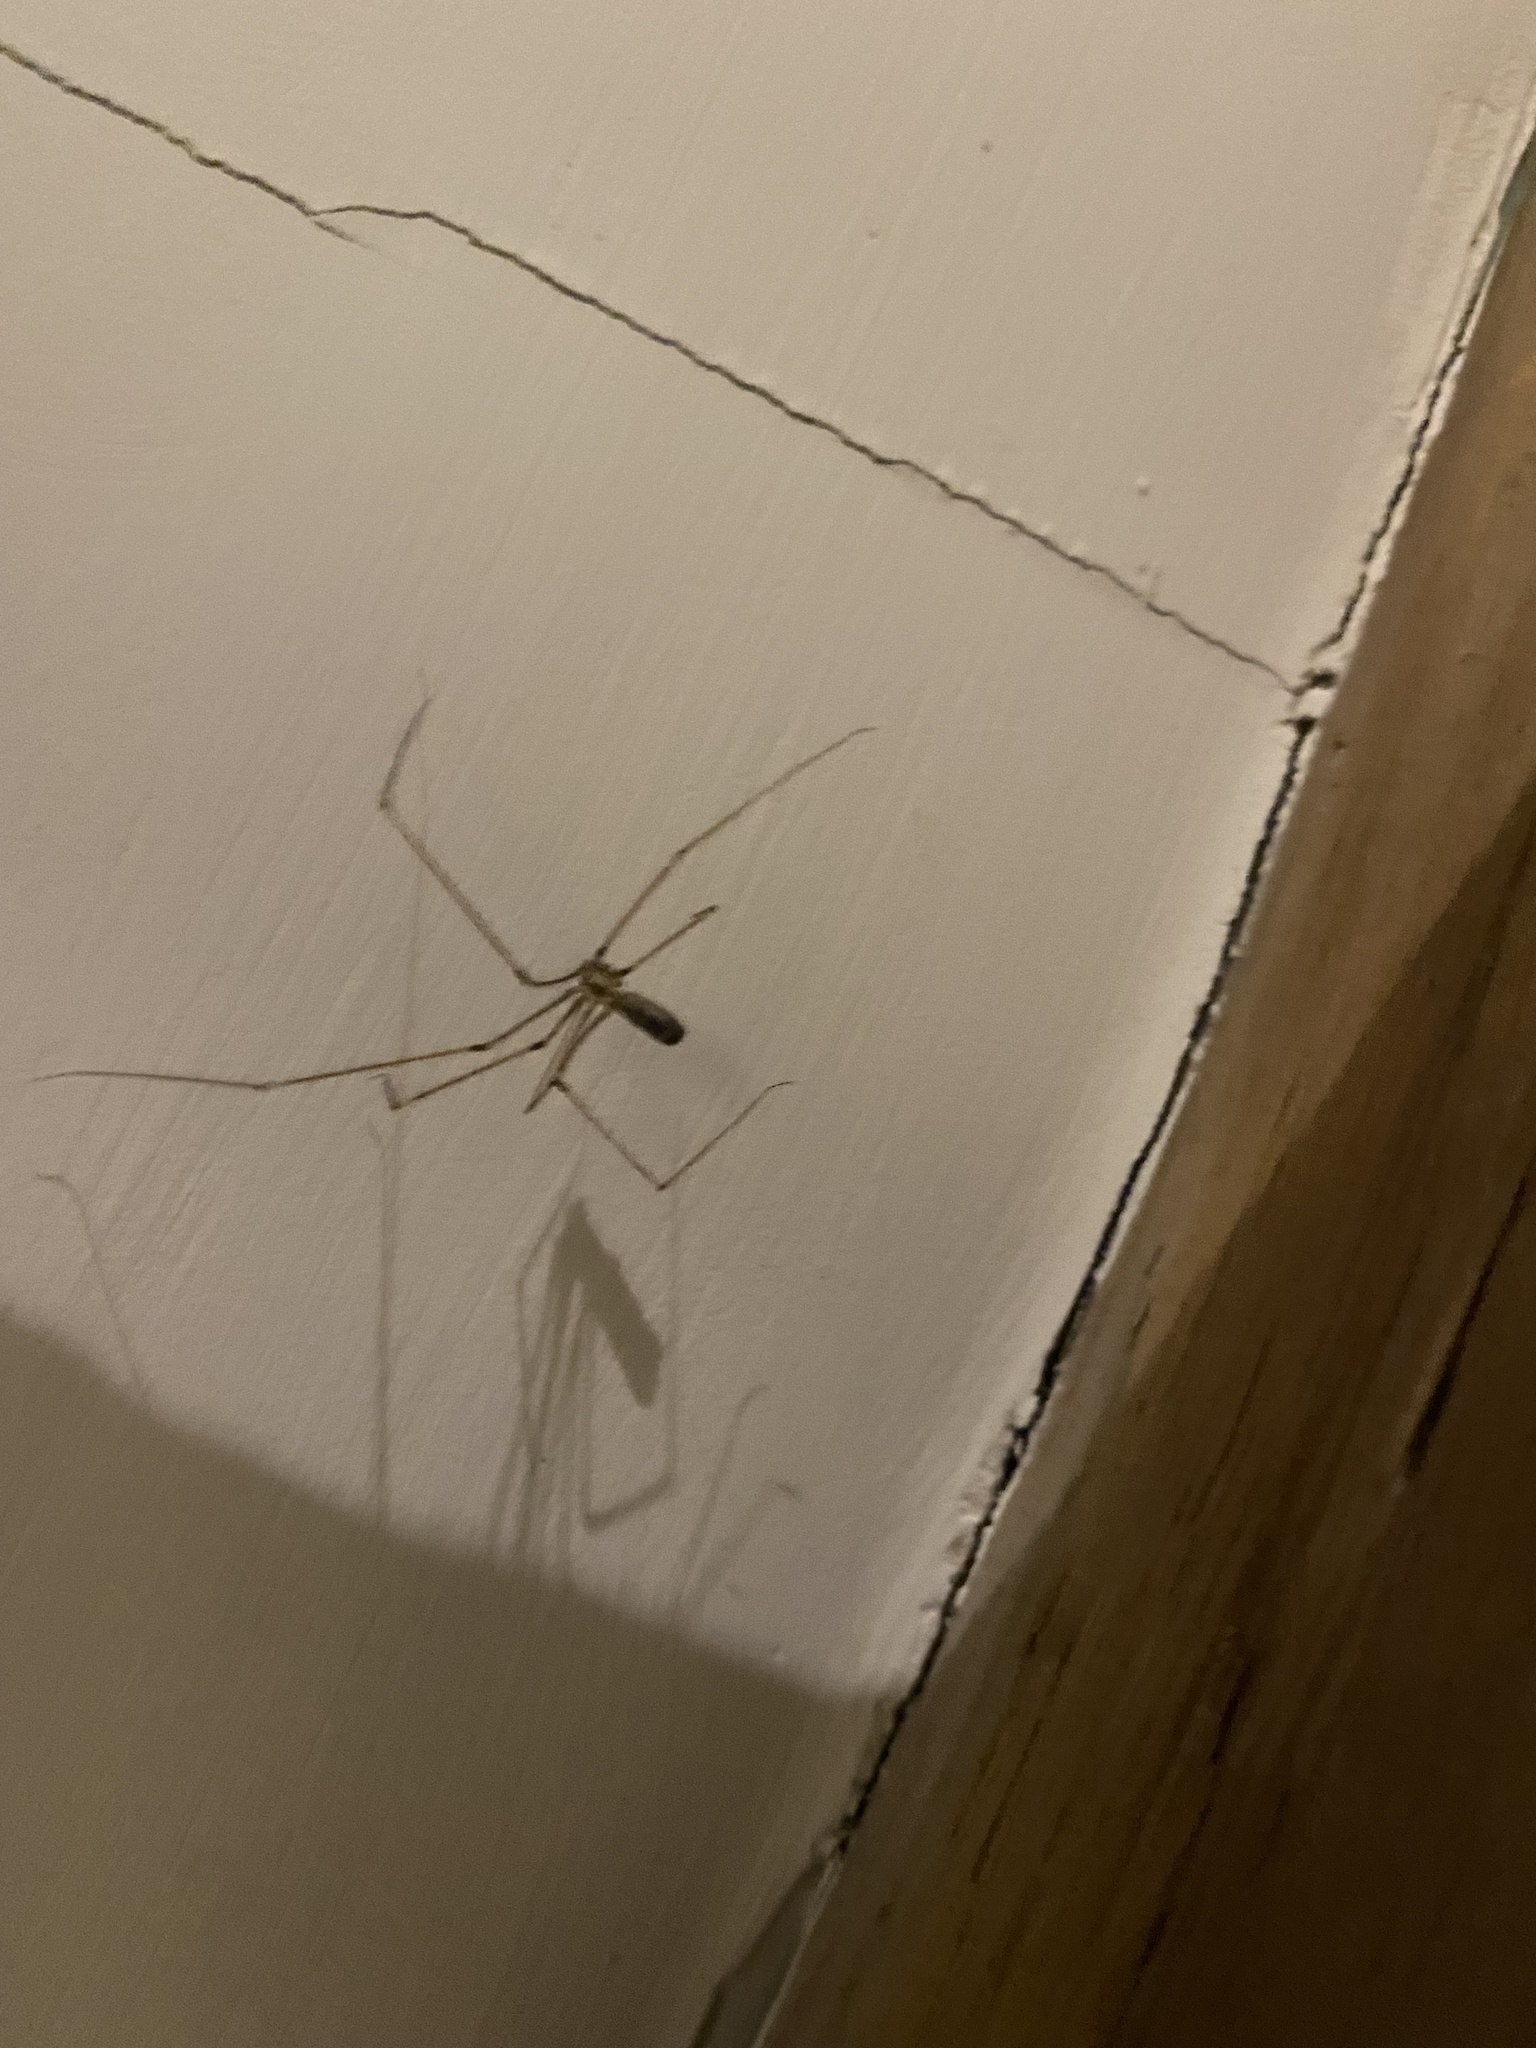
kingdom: Animalia
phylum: Arthropoda
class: Arachnida
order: Araneae
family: Pholcidae
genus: Pholcus
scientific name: Pholcus phalangioides
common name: Longbodied cellar spider
